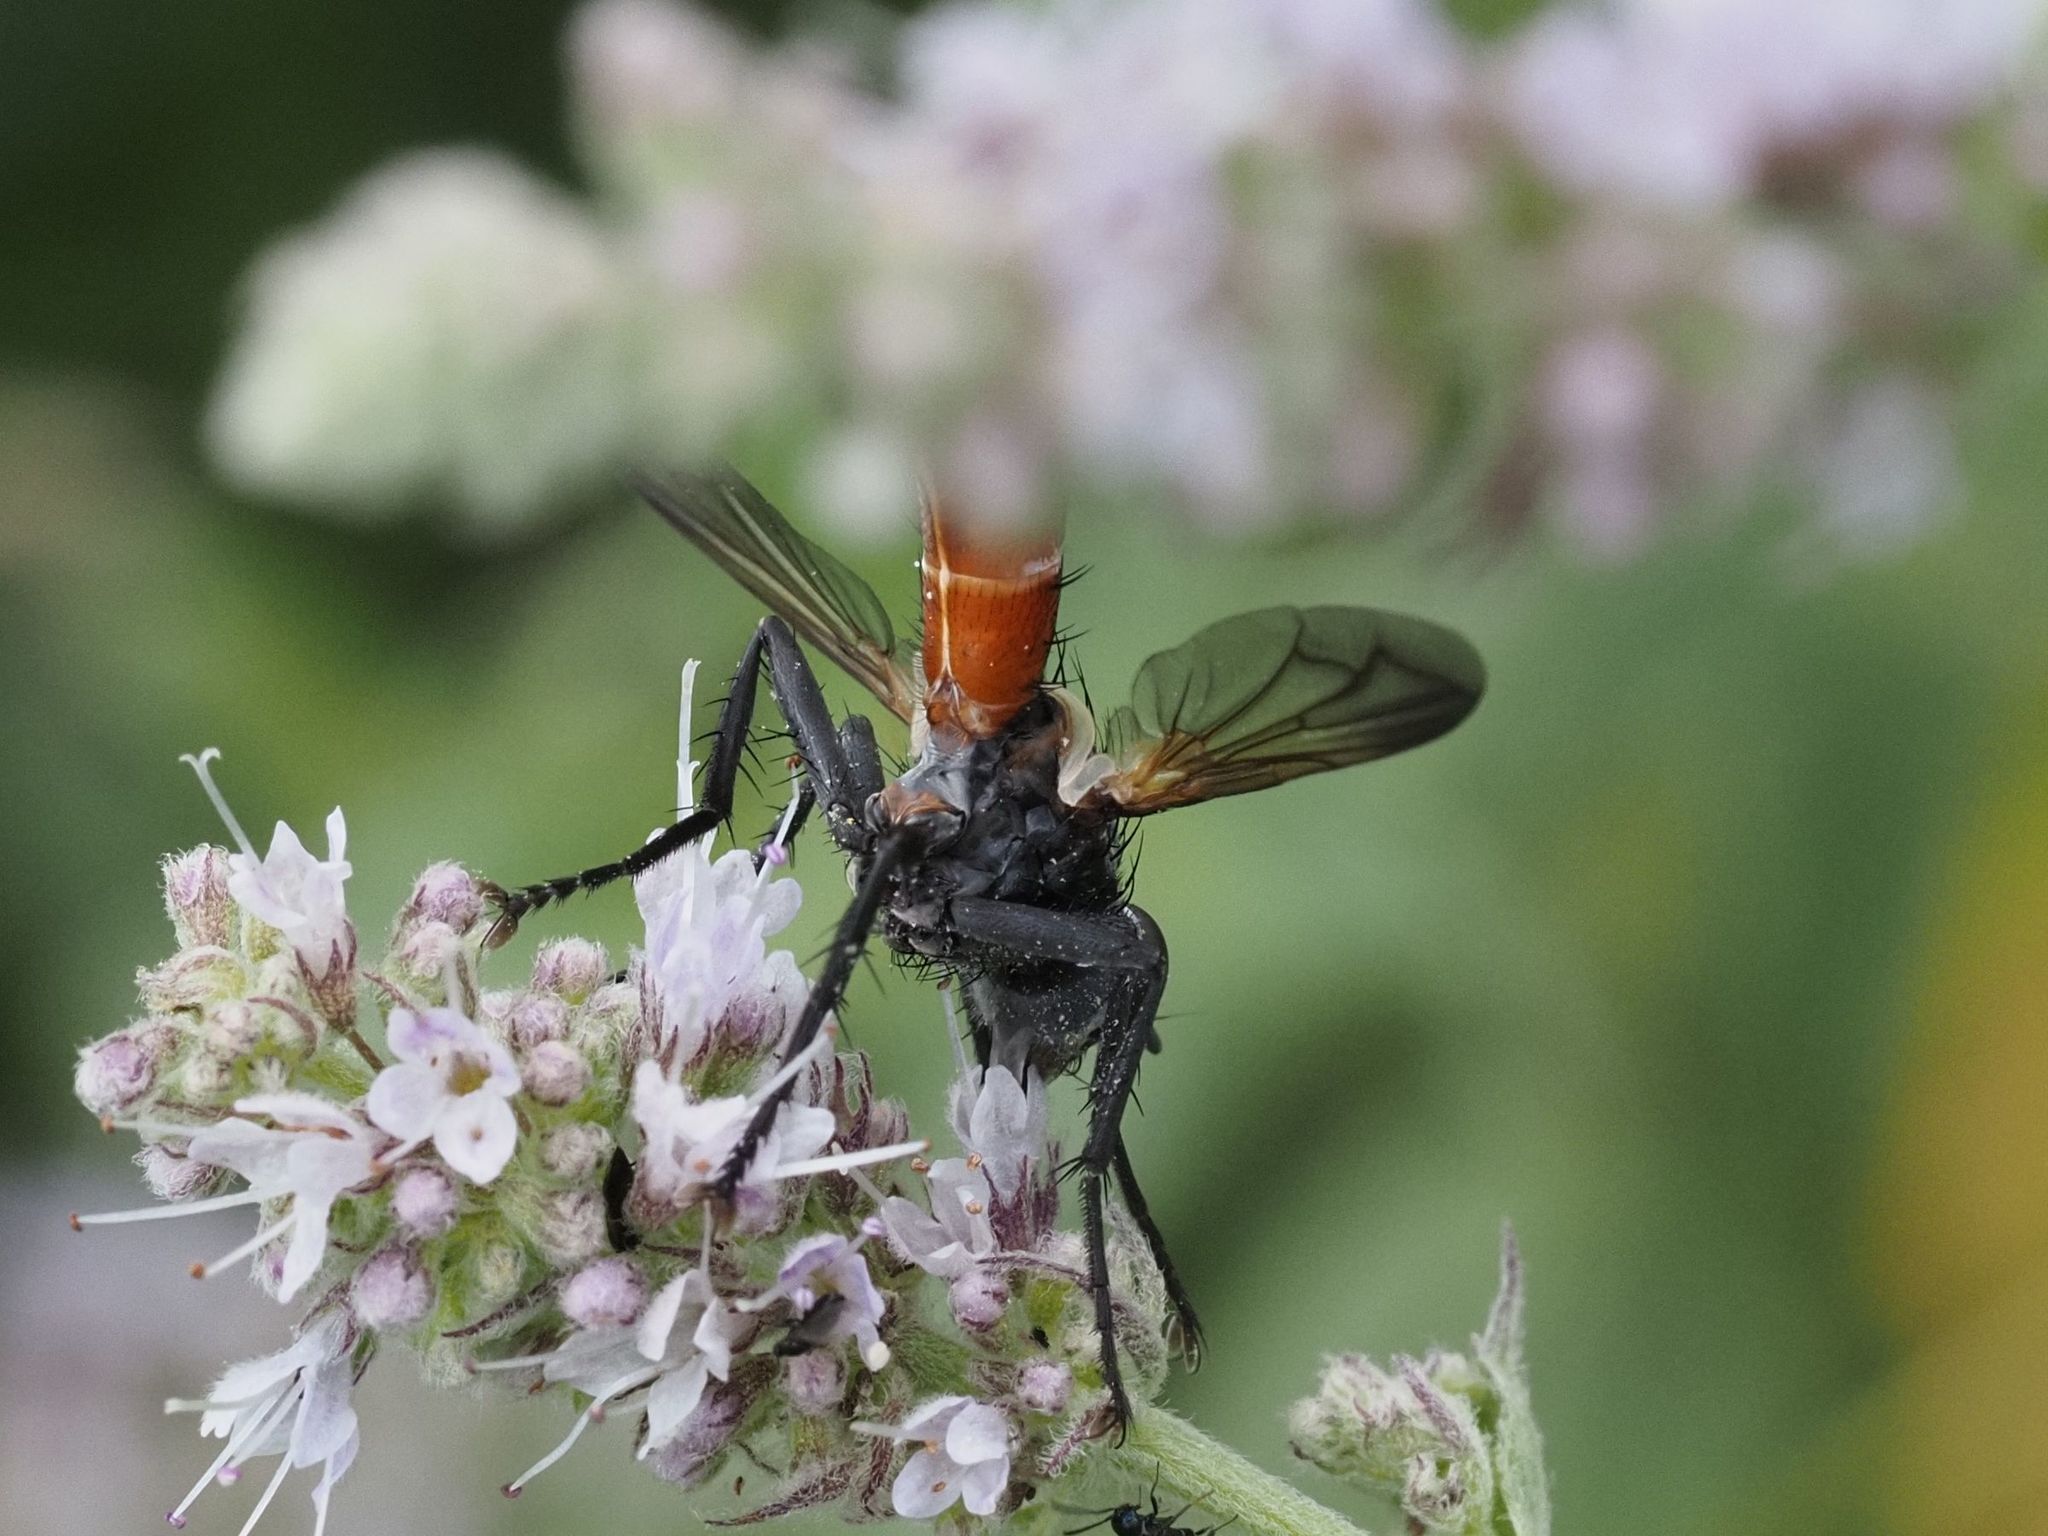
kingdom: Animalia
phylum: Arthropoda
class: Insecta
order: Diptera
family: Tachinidae
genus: Cylindromyia
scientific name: Cylindromyia bicolor
